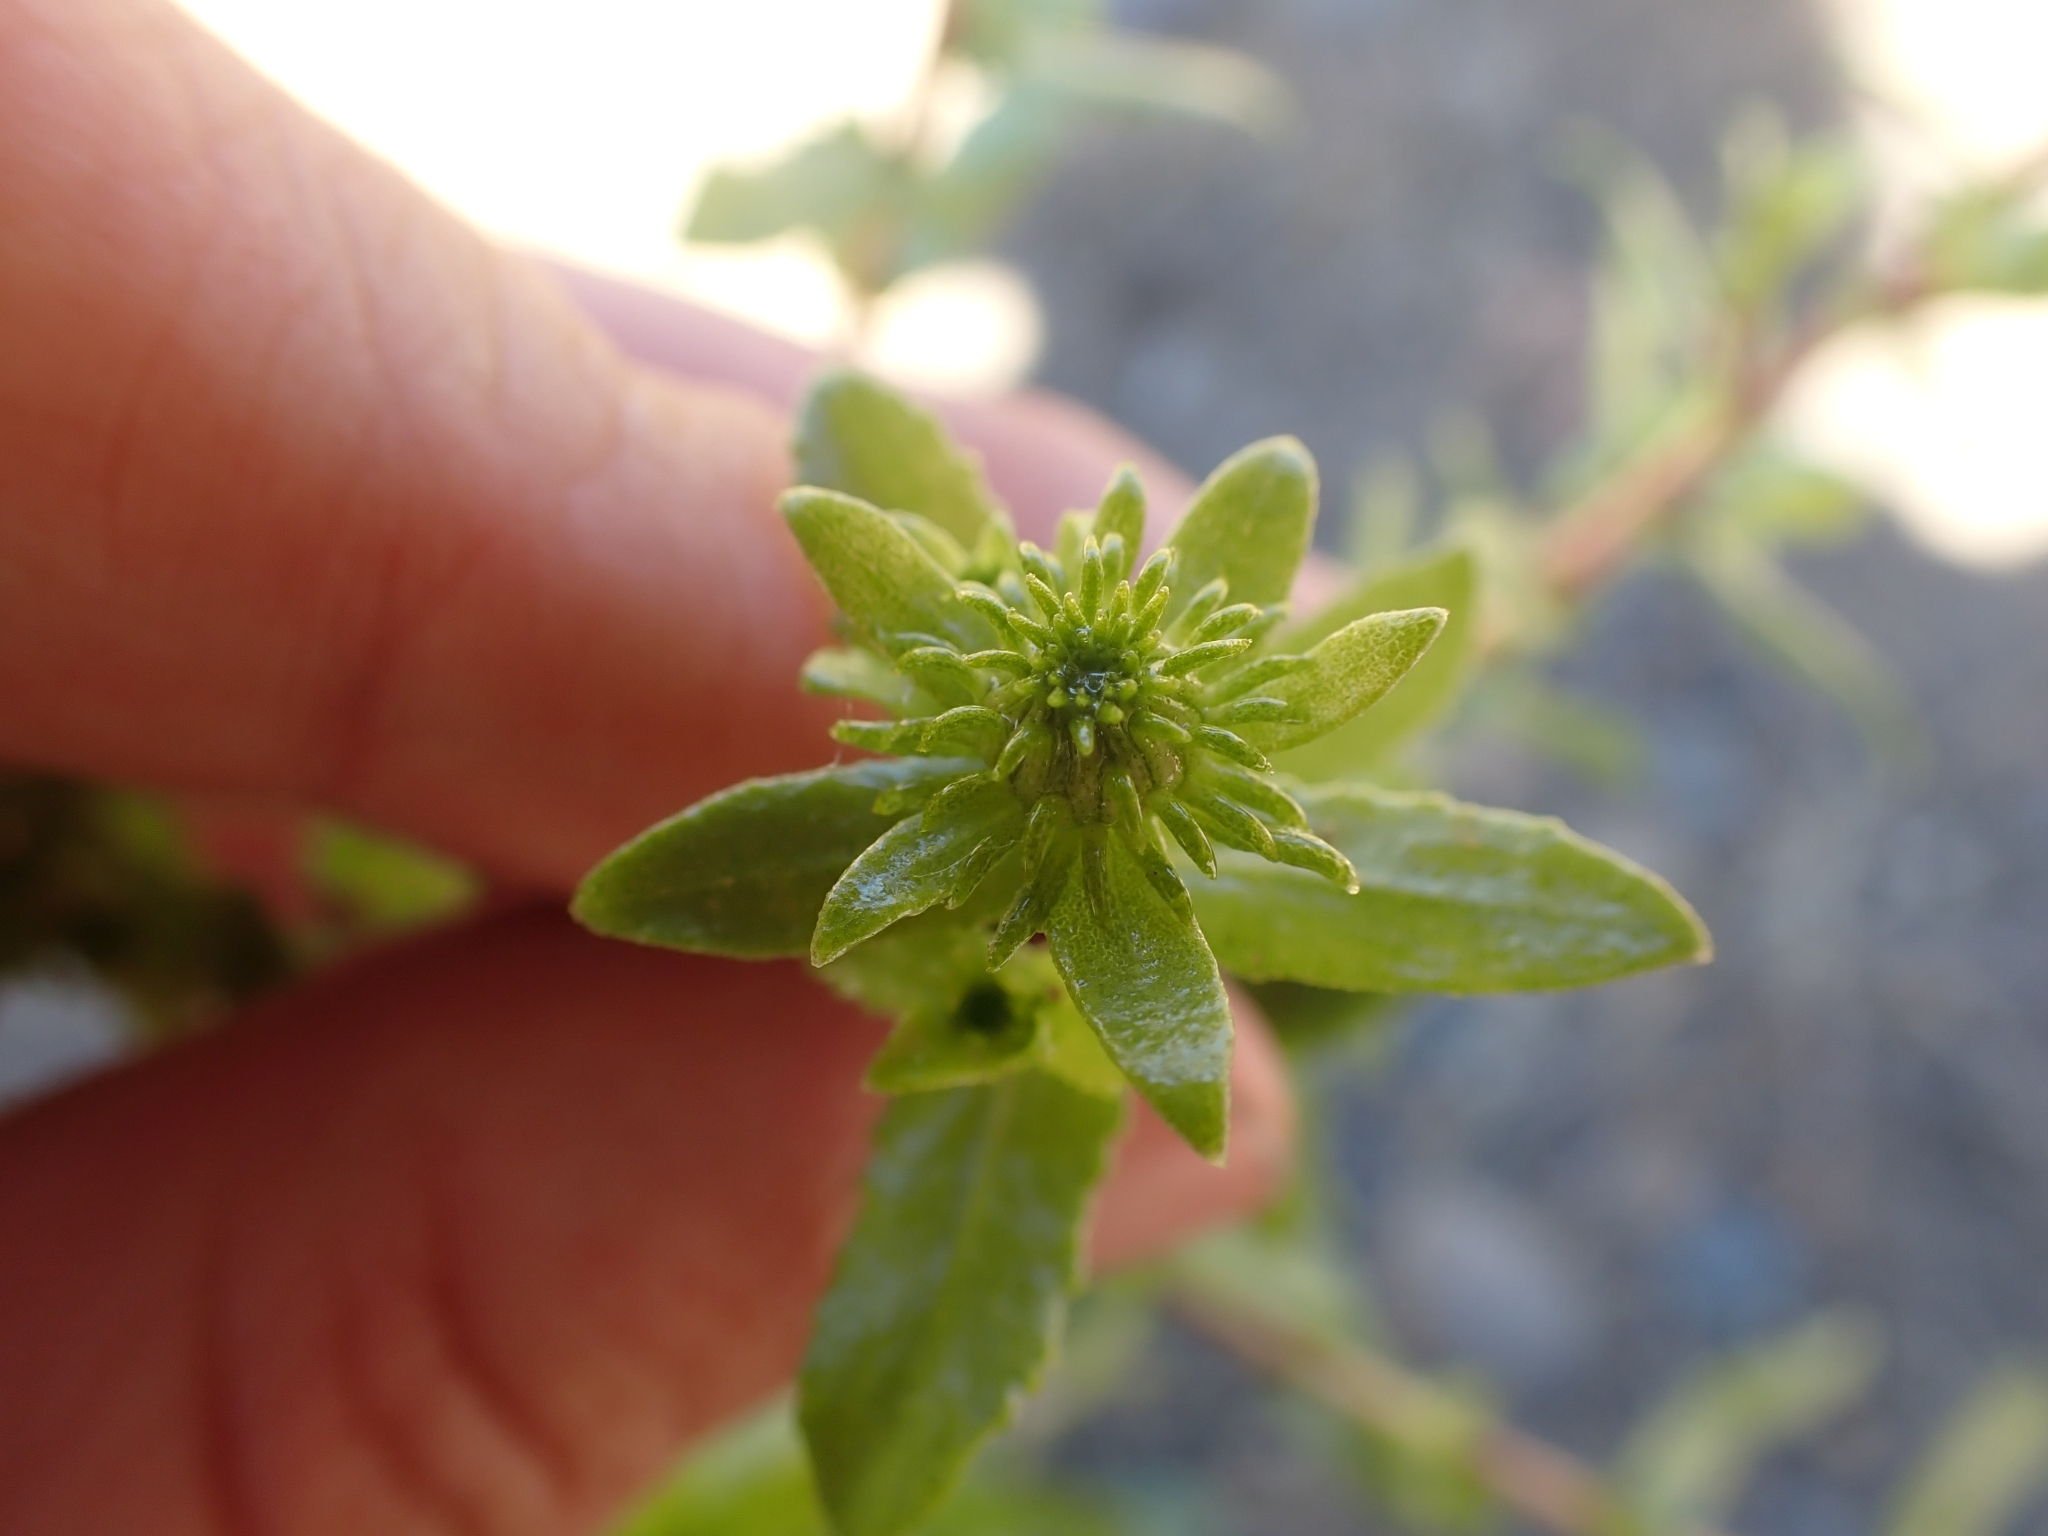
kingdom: Plantae
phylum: Tracheophyta
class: Magnoliopsida
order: Asterales
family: Asteraceae
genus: Grindelia
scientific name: Grindelia squarrosa
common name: Curly-cup gumweed
